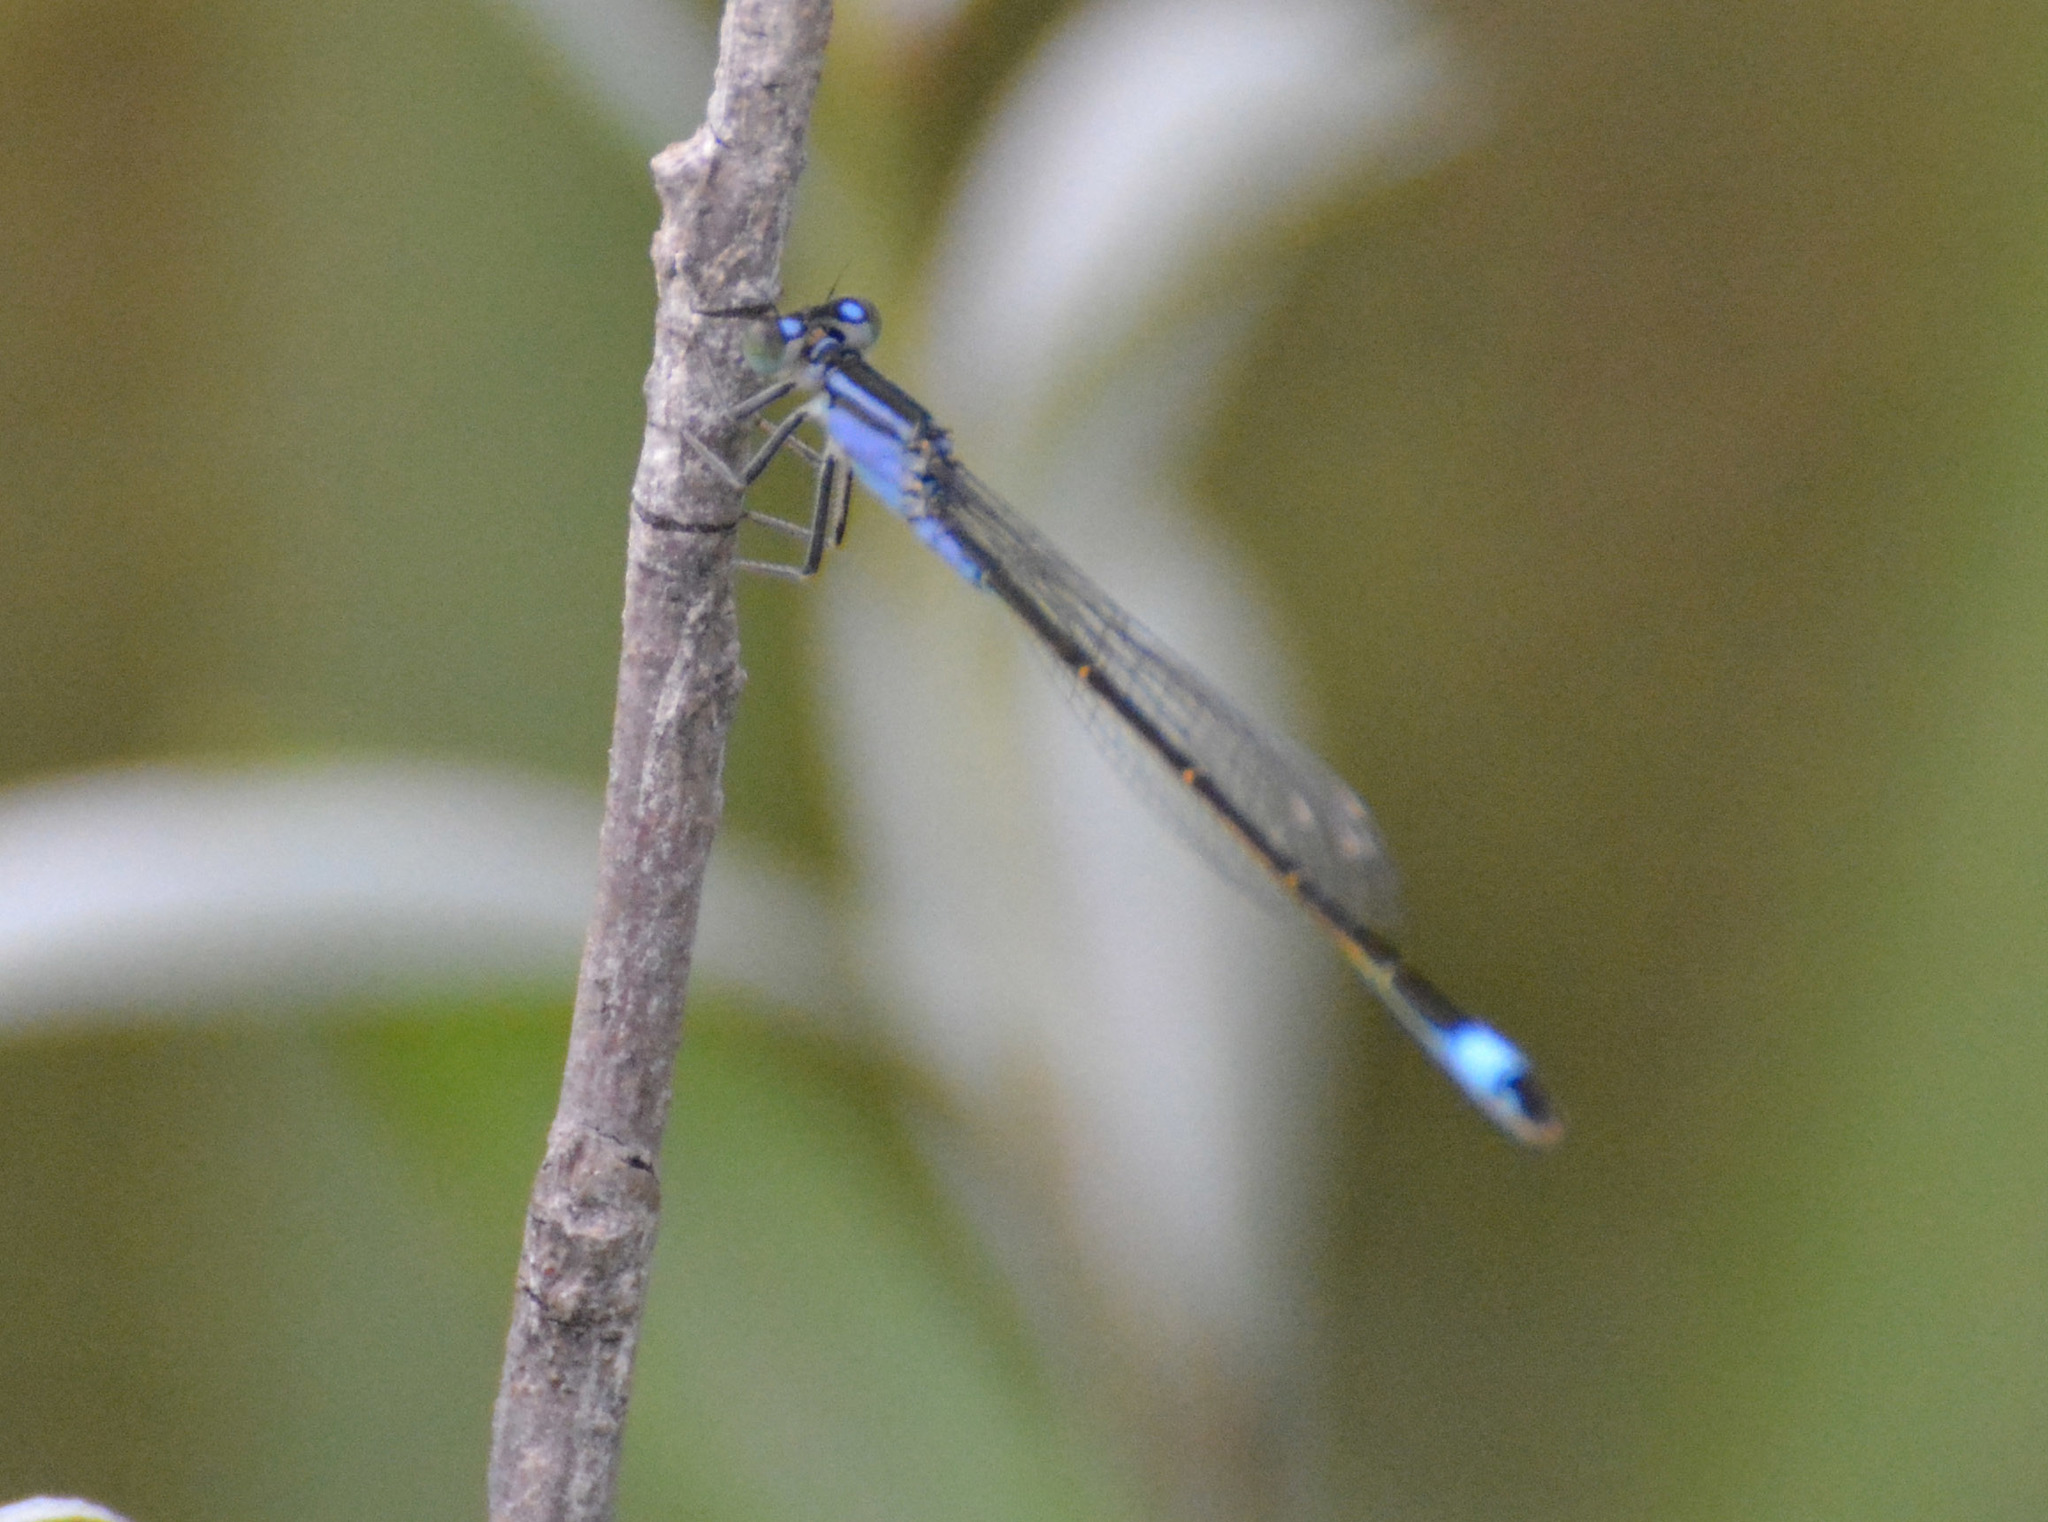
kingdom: Animalia
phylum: Arthropoda
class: Insecta
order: Odonata
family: Coenagrionidae
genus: Ischnura
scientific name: Ischnura elegans
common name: Blue-tailed damselfly
